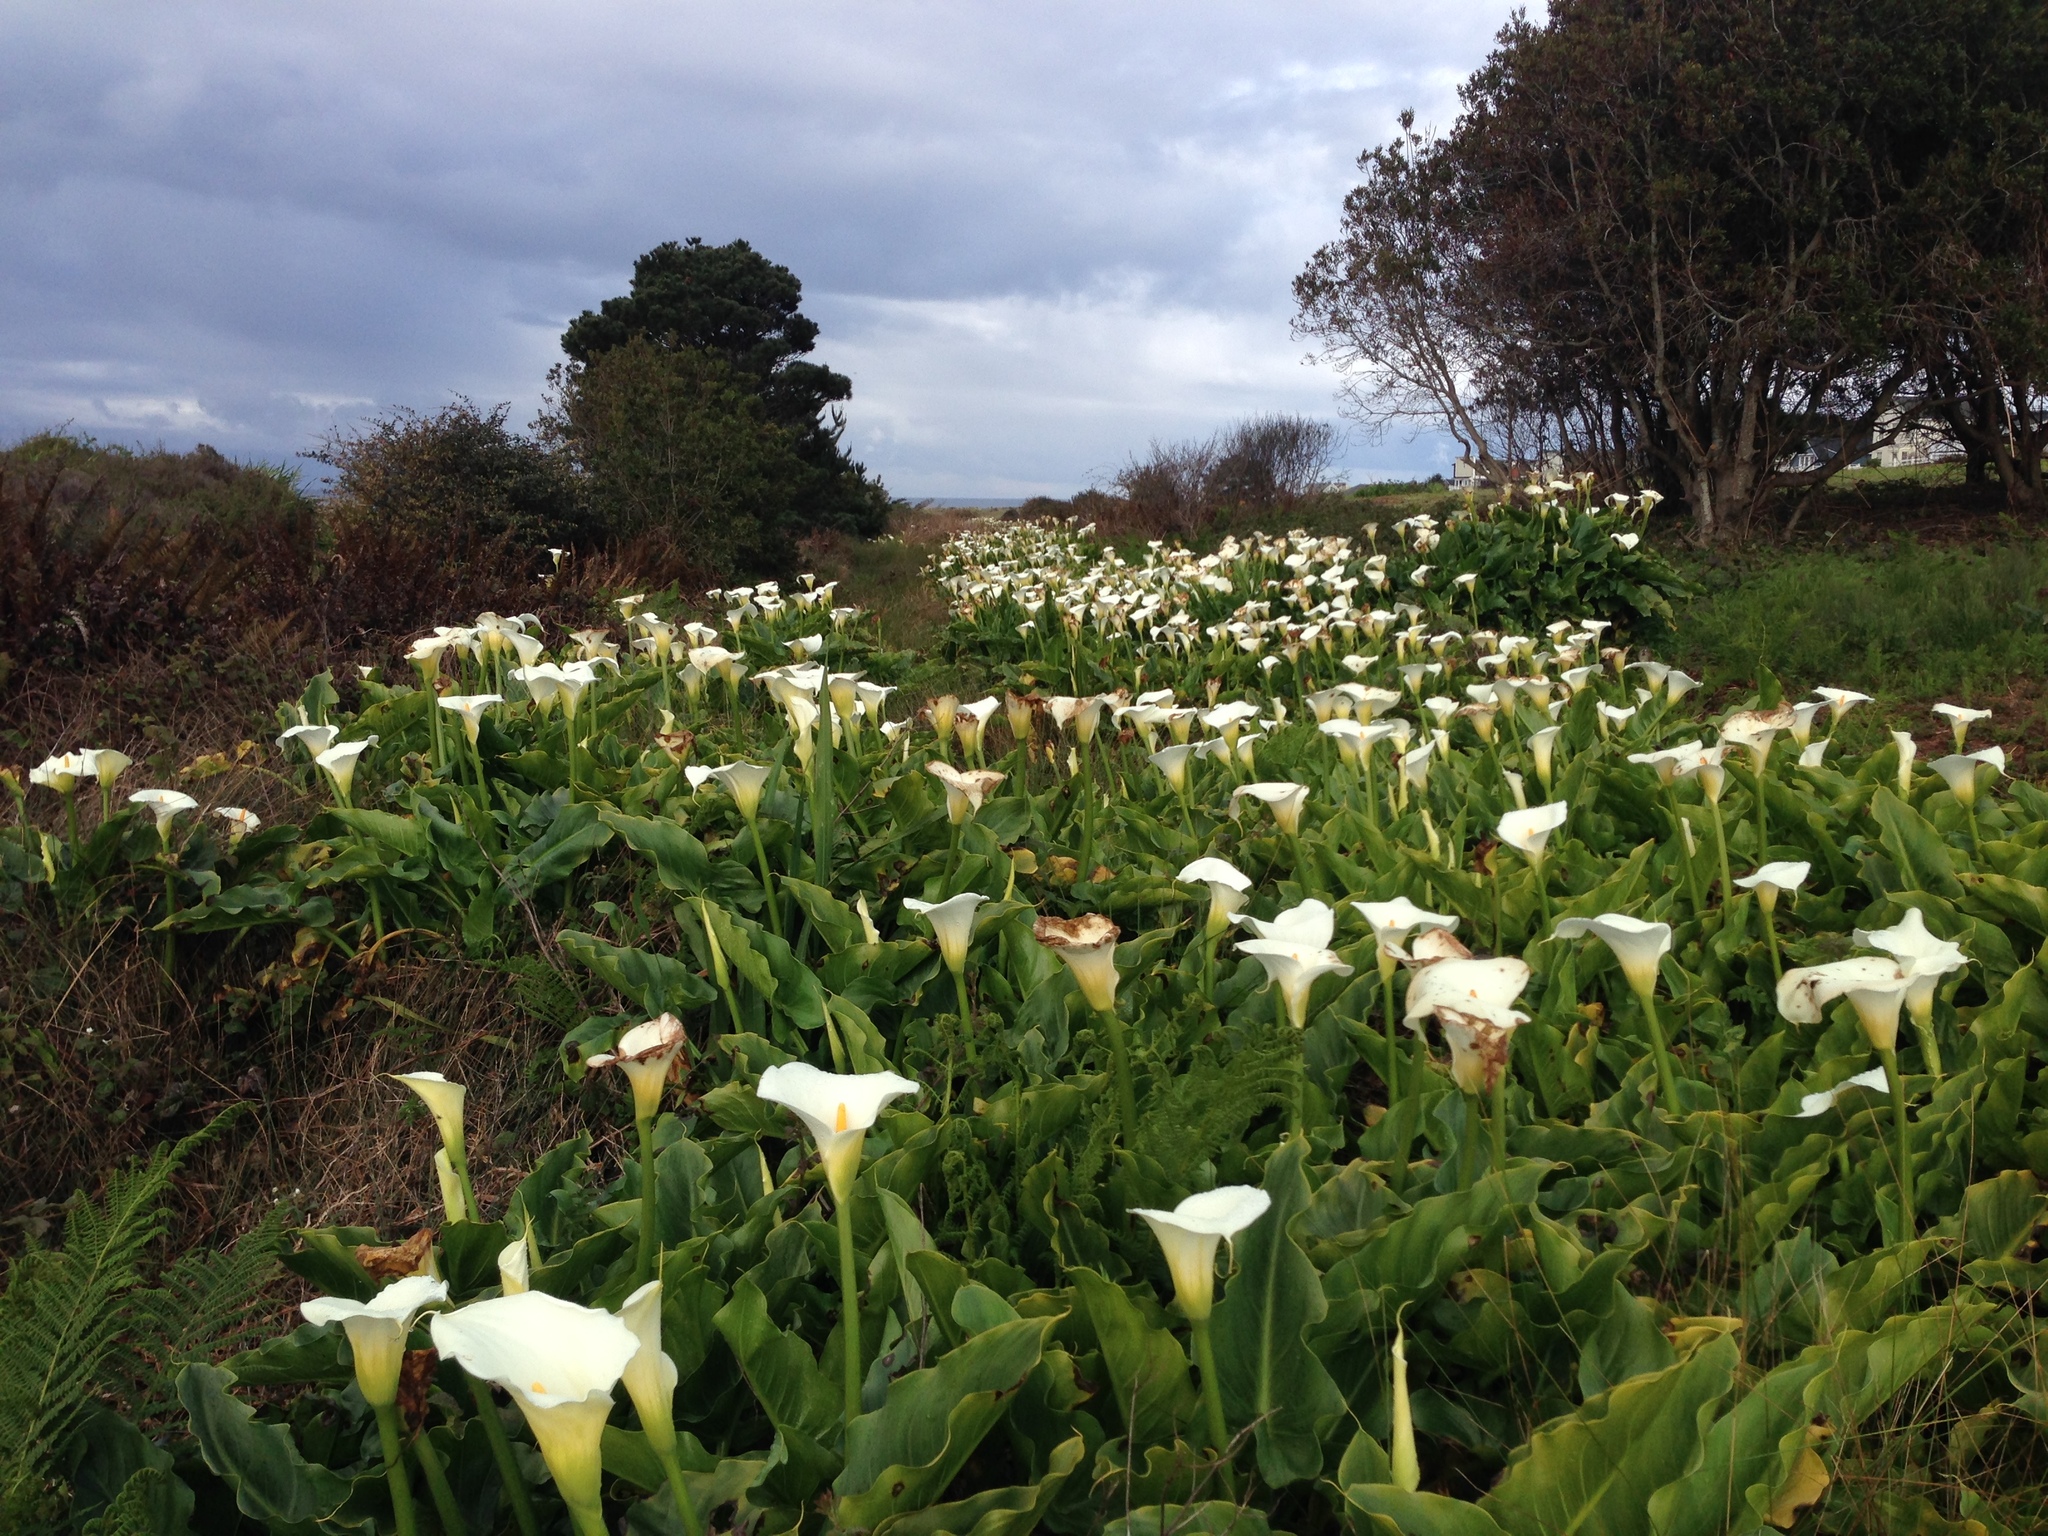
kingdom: Plantae
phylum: Tracheophyta
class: Liliopsida
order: Alismatales
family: Araceae
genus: Zantedeschia
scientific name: Zantedeschia aethiopica
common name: Altar-lily
